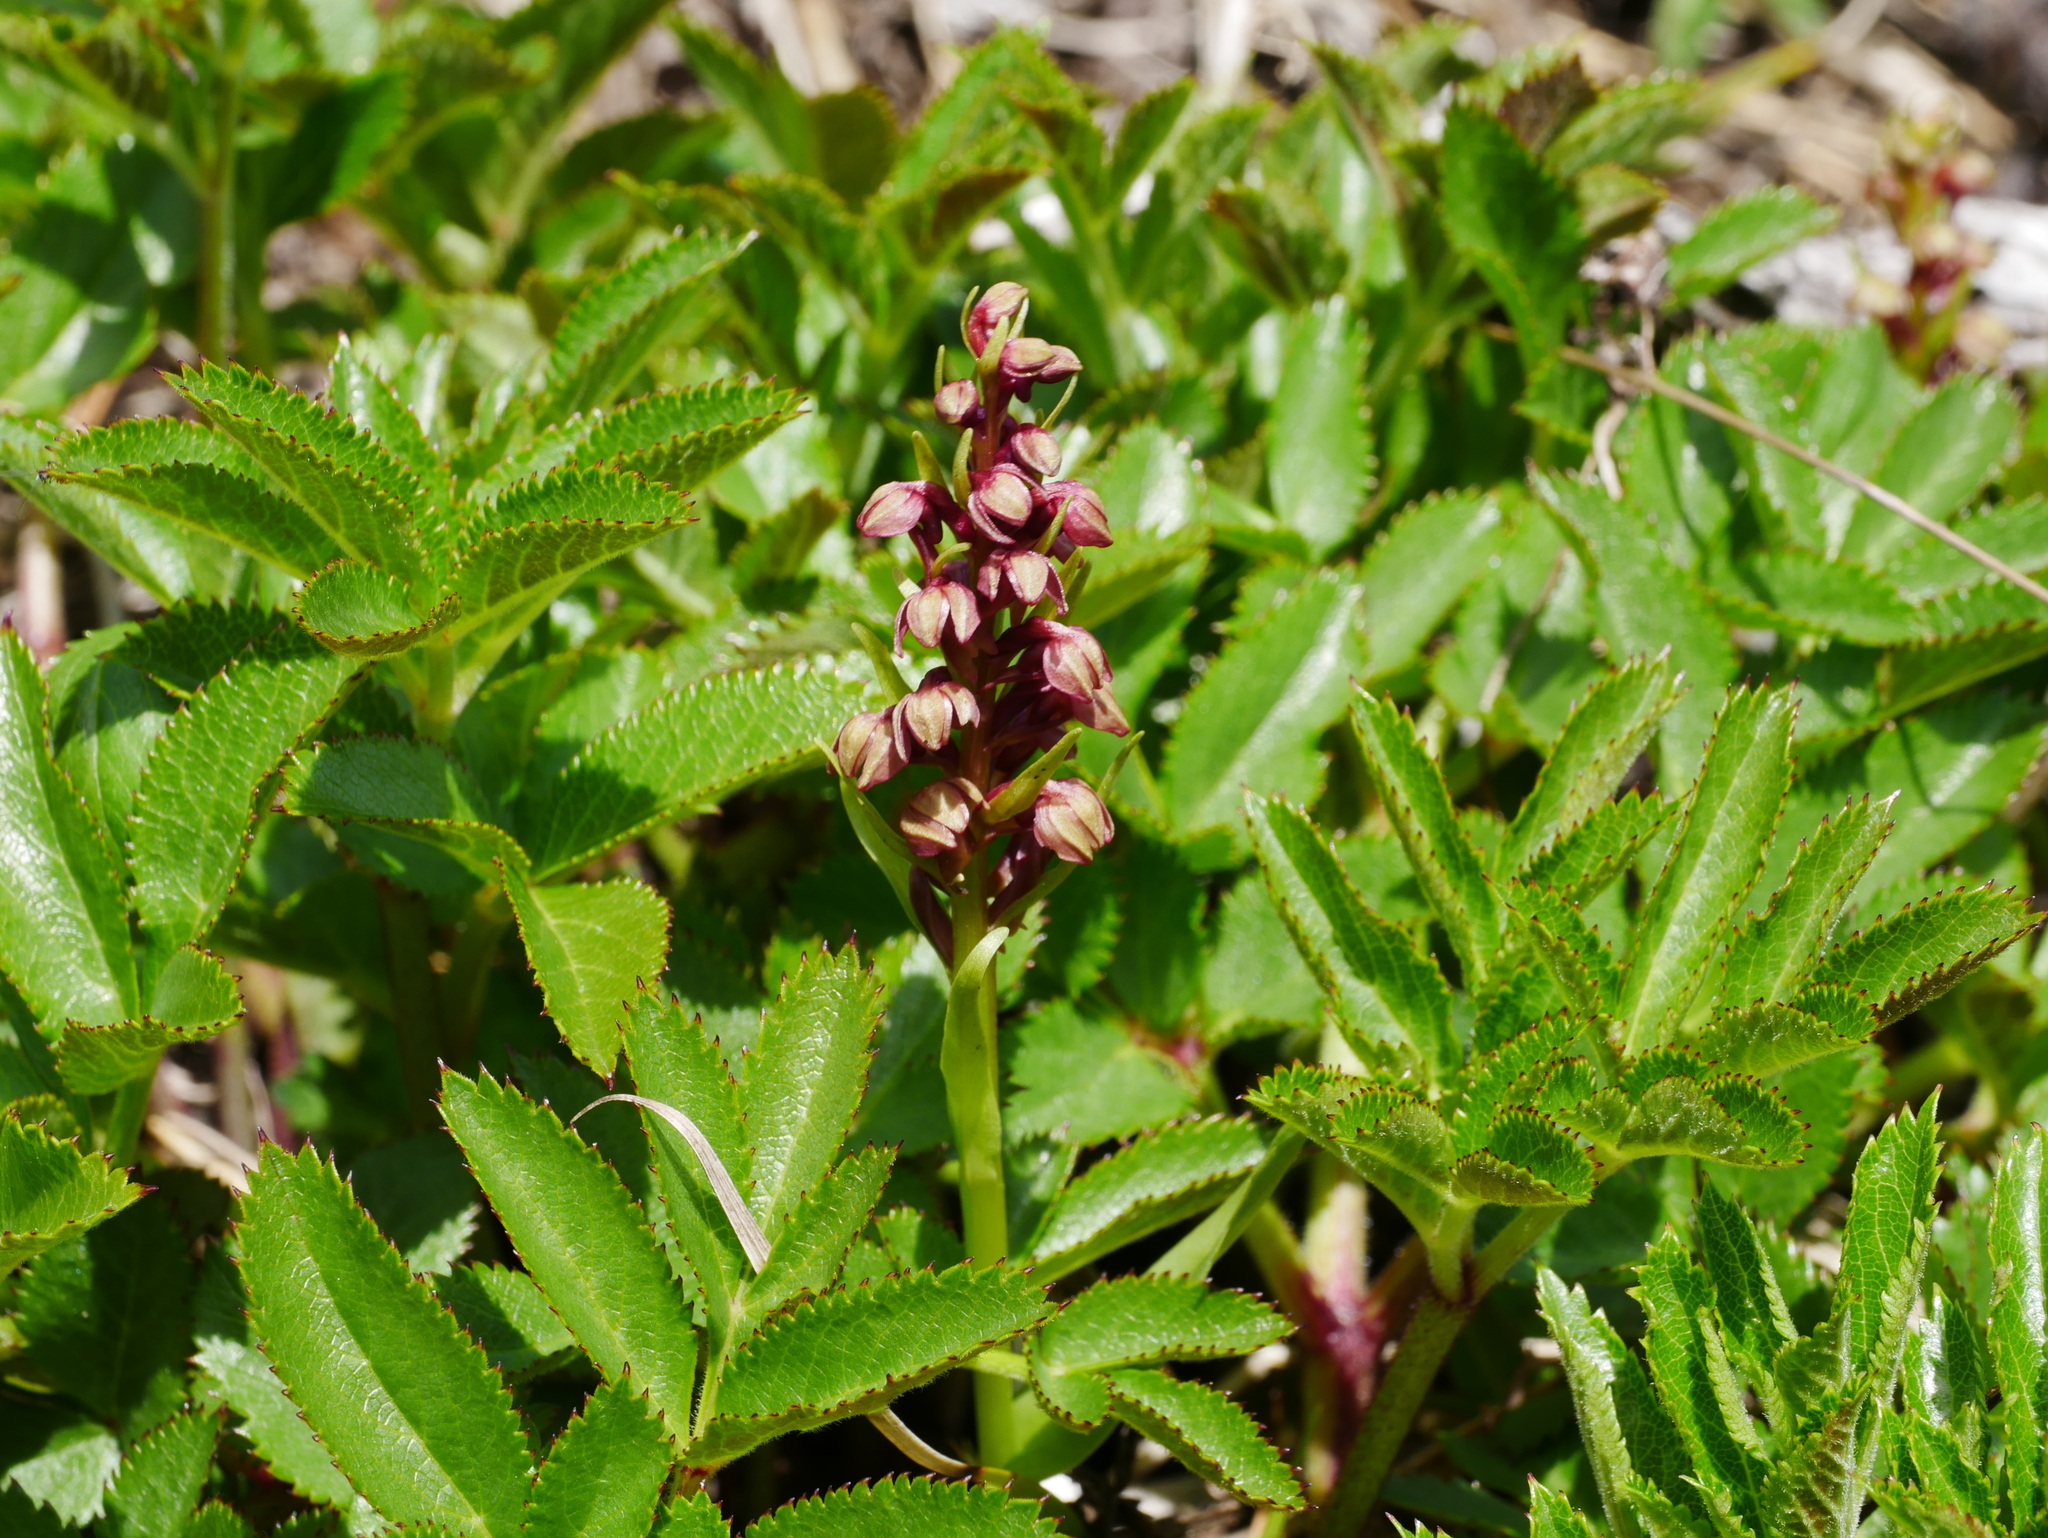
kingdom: Plantae
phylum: Tracheophyta
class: Liliopsida
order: Asparagales
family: Orchidaceae
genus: Dactylorhiza
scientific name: Dactylorhiza viridis
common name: Longbract frog orchid
